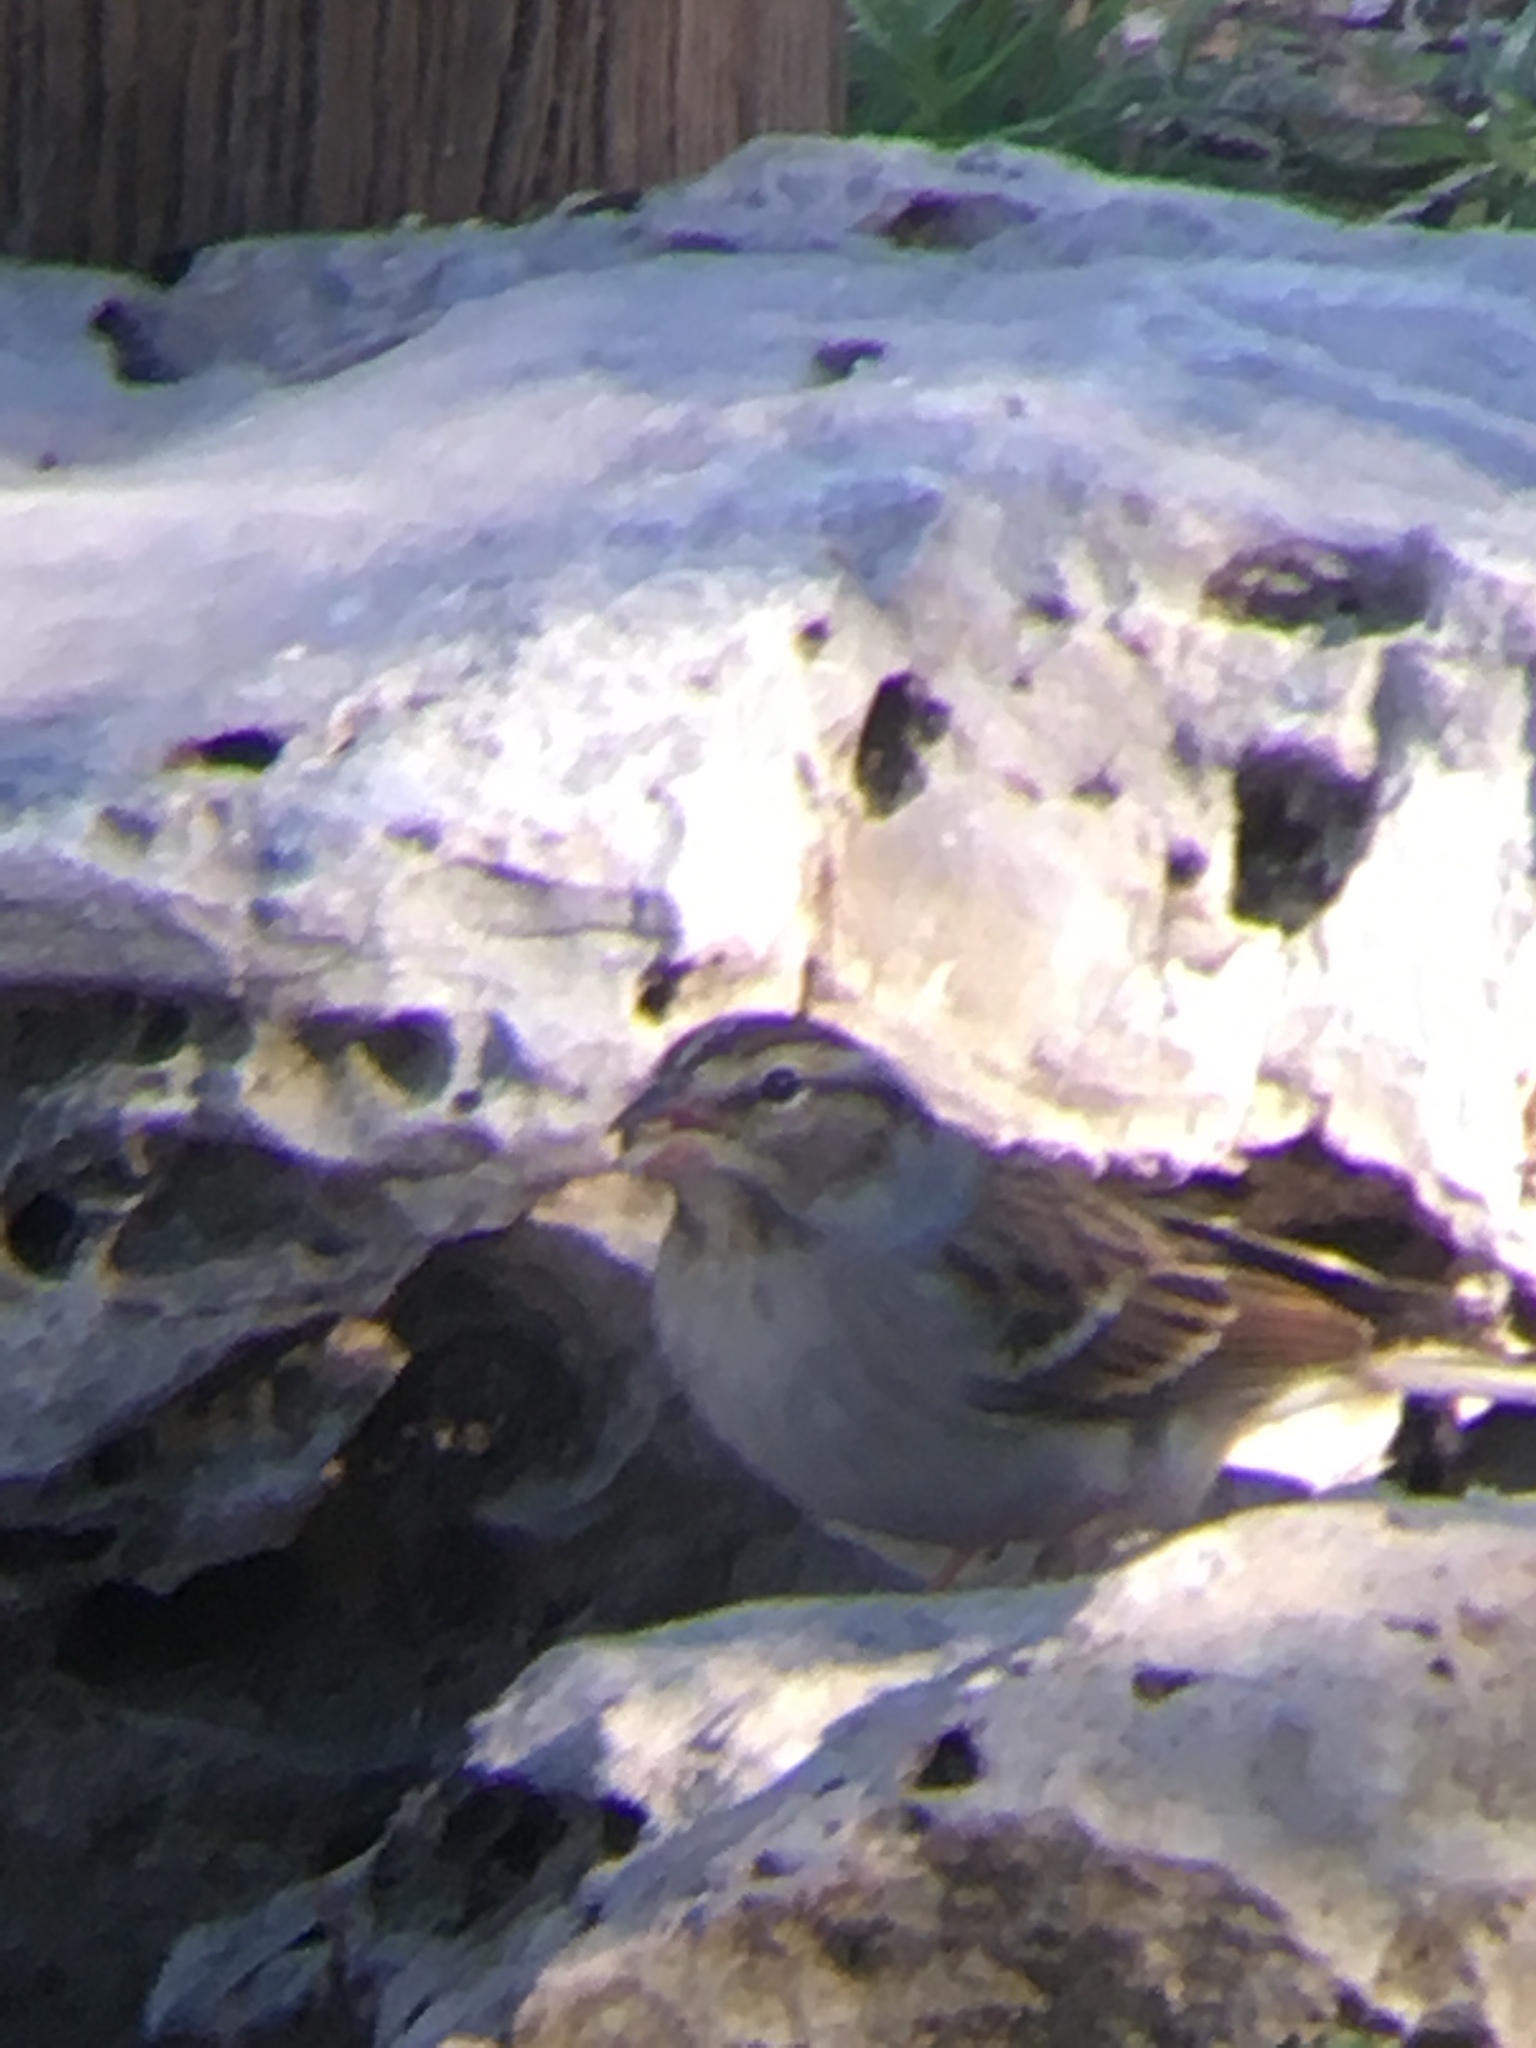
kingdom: Animalia
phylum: Chordata
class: Aves
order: Passeriformes
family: Passerellidae
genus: Spizella
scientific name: Spizella passerina
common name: Chipping sparrow
